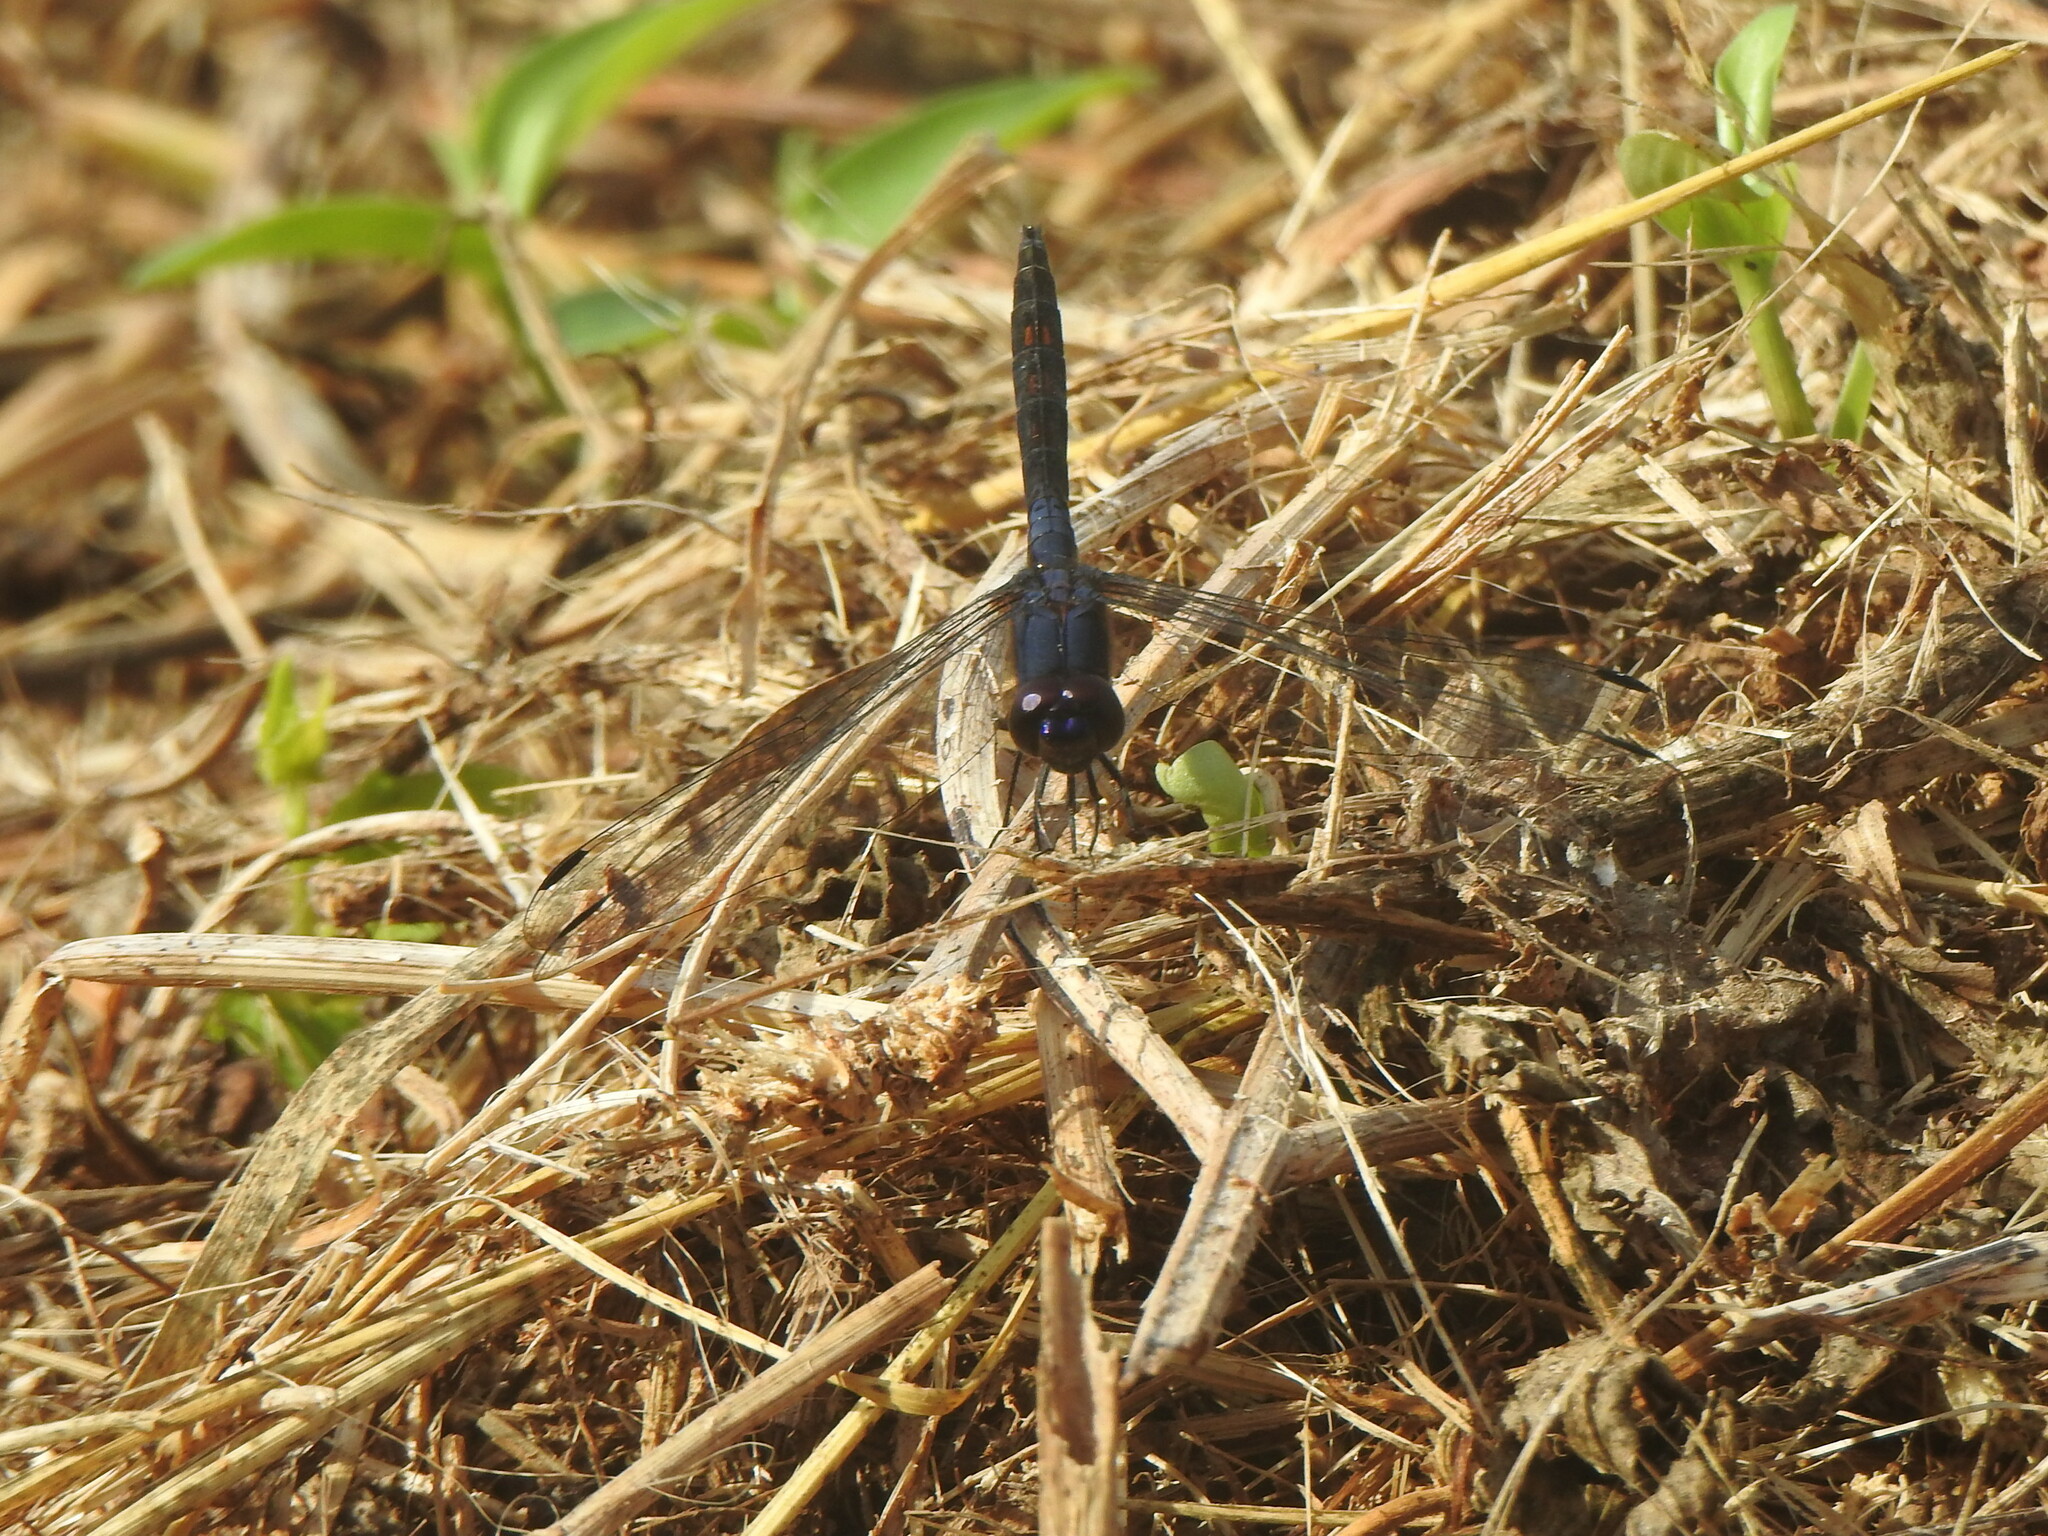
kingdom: Animalia
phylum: Arthropoda
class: Insecta
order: Odonata
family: Libellulidae
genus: Trithemis
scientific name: Trithemis festiva
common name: Indigo dropwing
